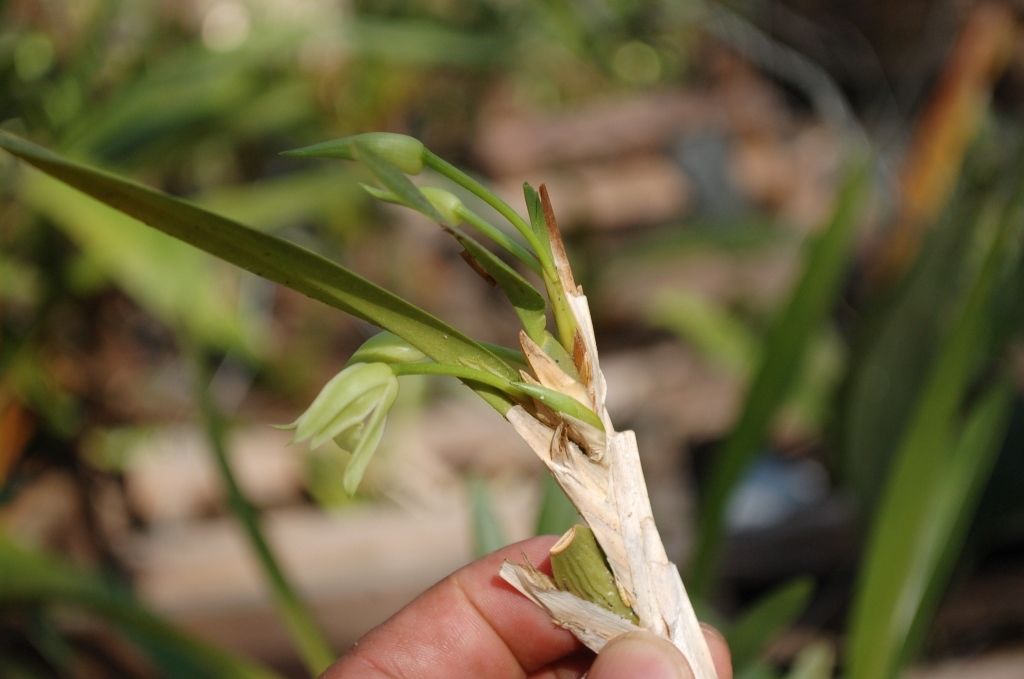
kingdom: Plantae
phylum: Tracheophyta
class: Liliopsida
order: Asparagales
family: Orchidaceae
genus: Maxillaria
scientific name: Maxillaria anceps
